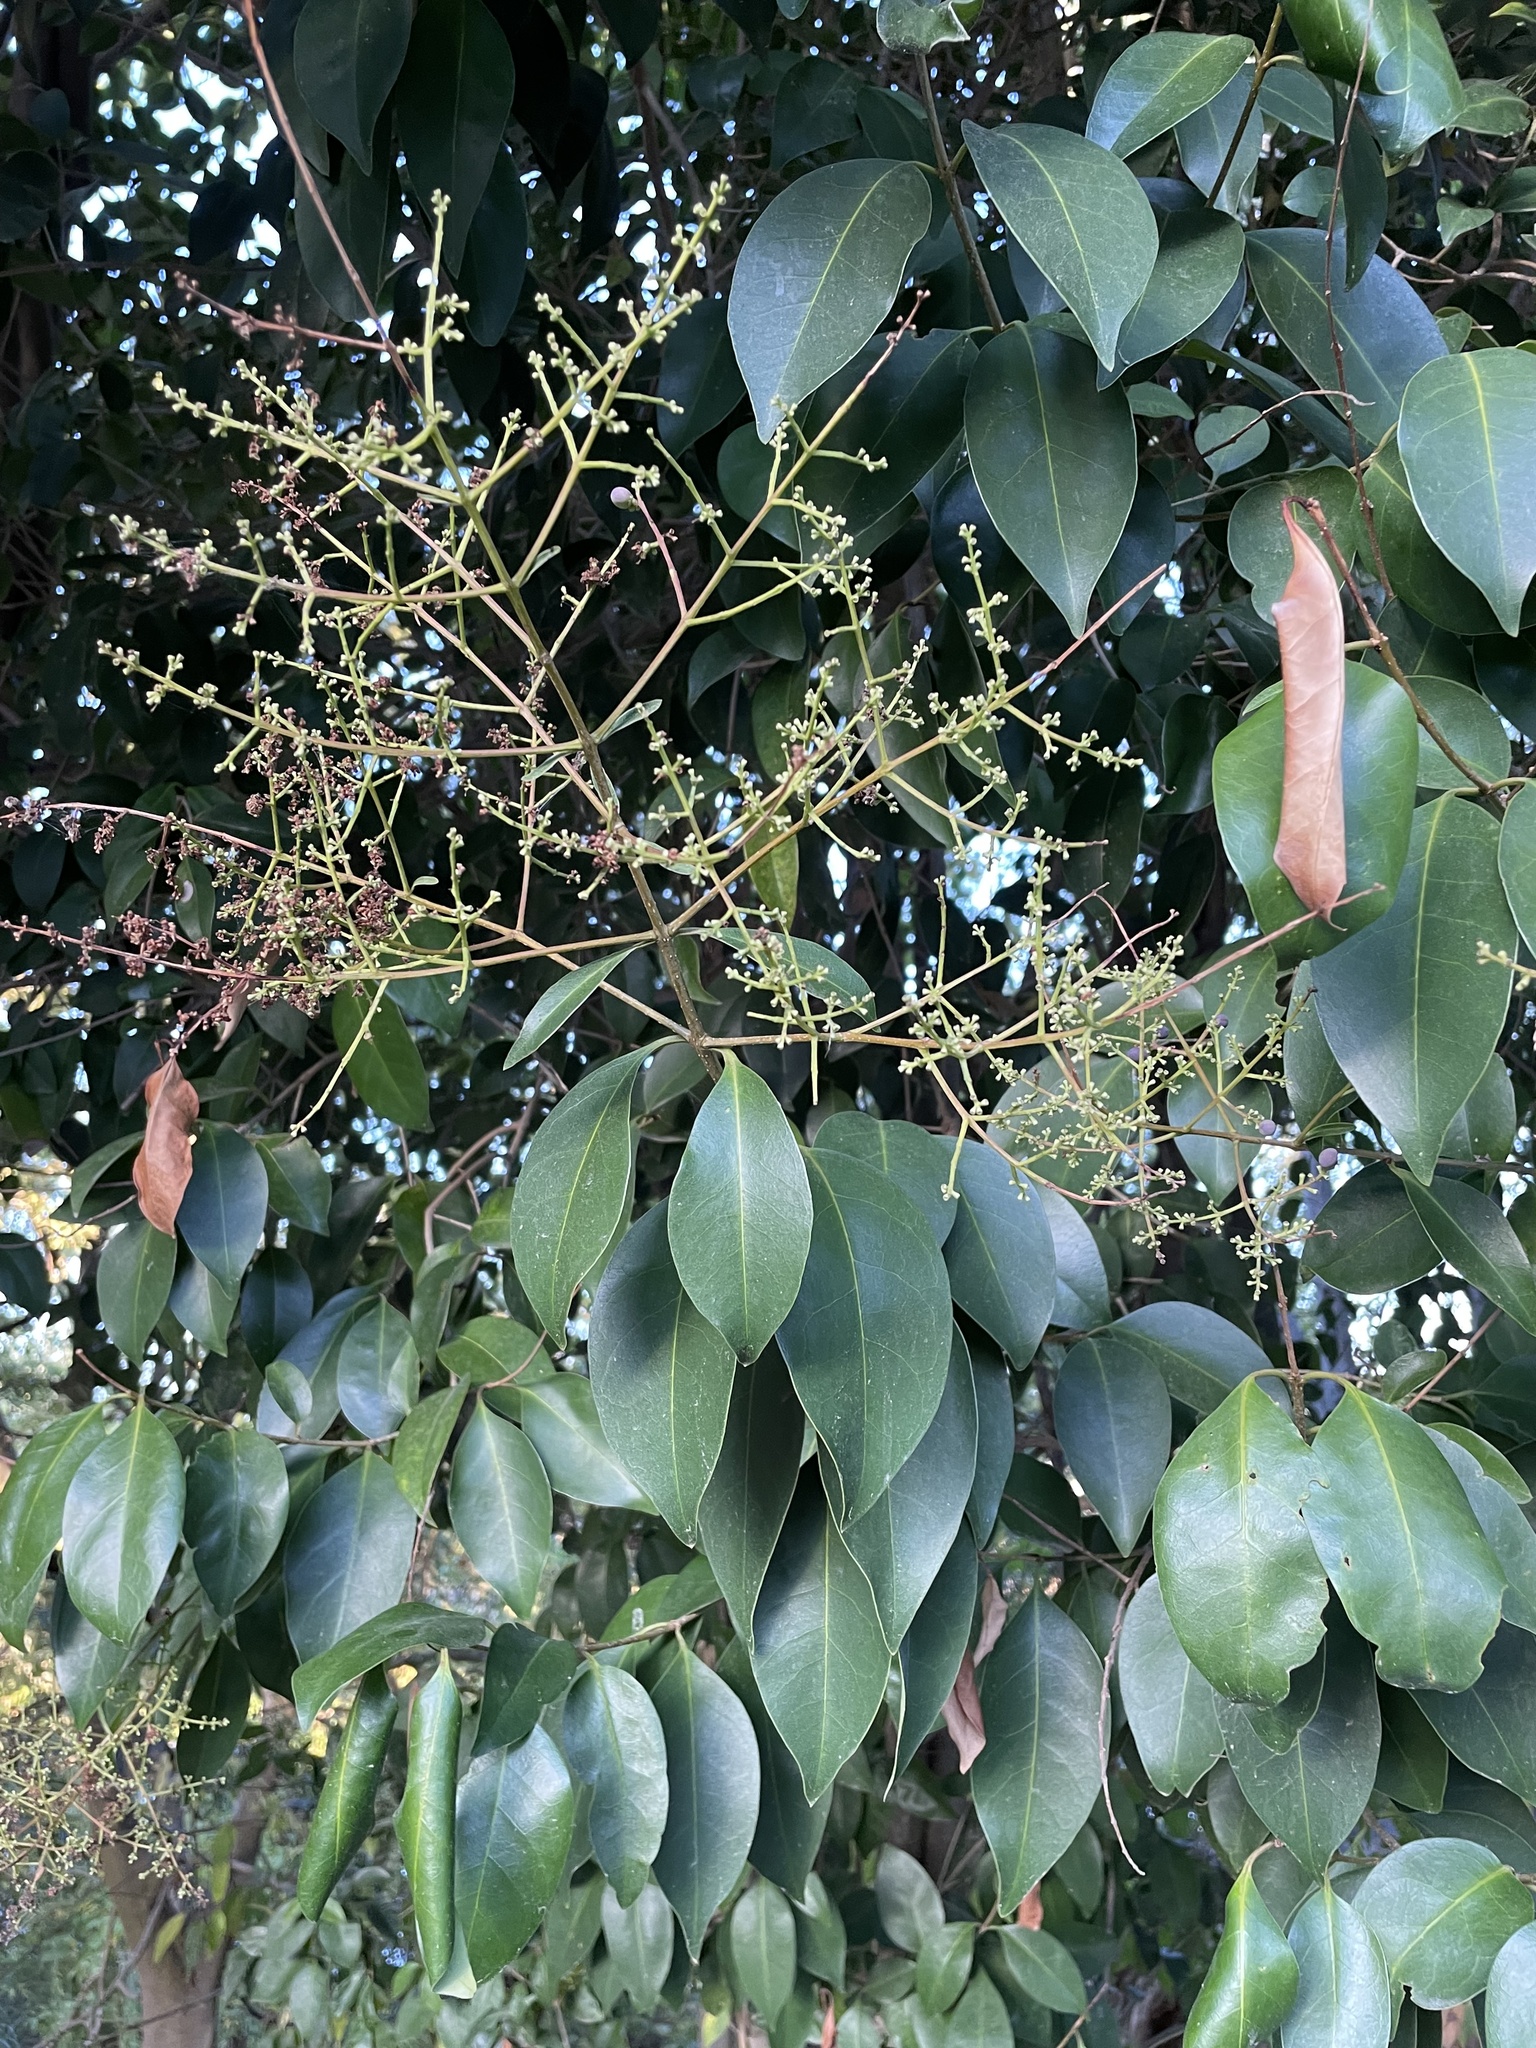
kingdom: Plantae
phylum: Tracheophyta
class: Magnoliopsida
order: Lamiales
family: Oleaceae
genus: Ligustrum
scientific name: Ligustrum lucidum
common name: Glossy privet
